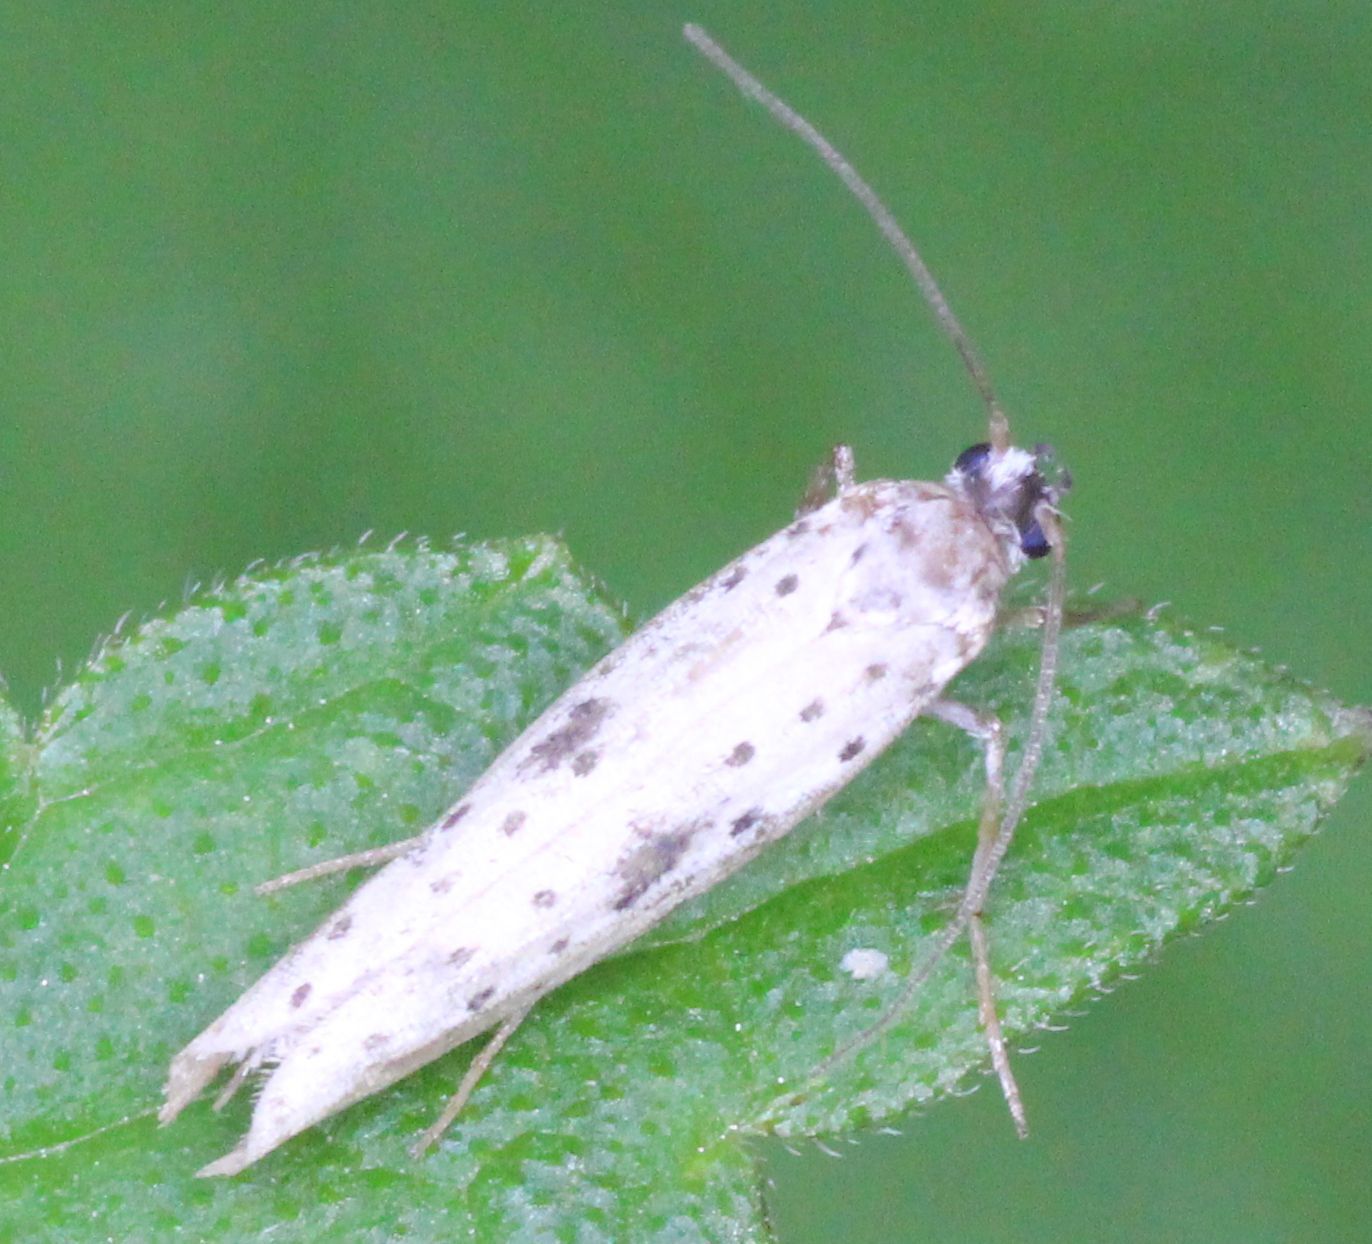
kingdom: Animalia
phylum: Arthropoda
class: Insecta
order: Lepidoptera
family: Yponomeutidae
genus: Yponomeuta
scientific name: Yponomeuta plumbella
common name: Black-tipped ermine
